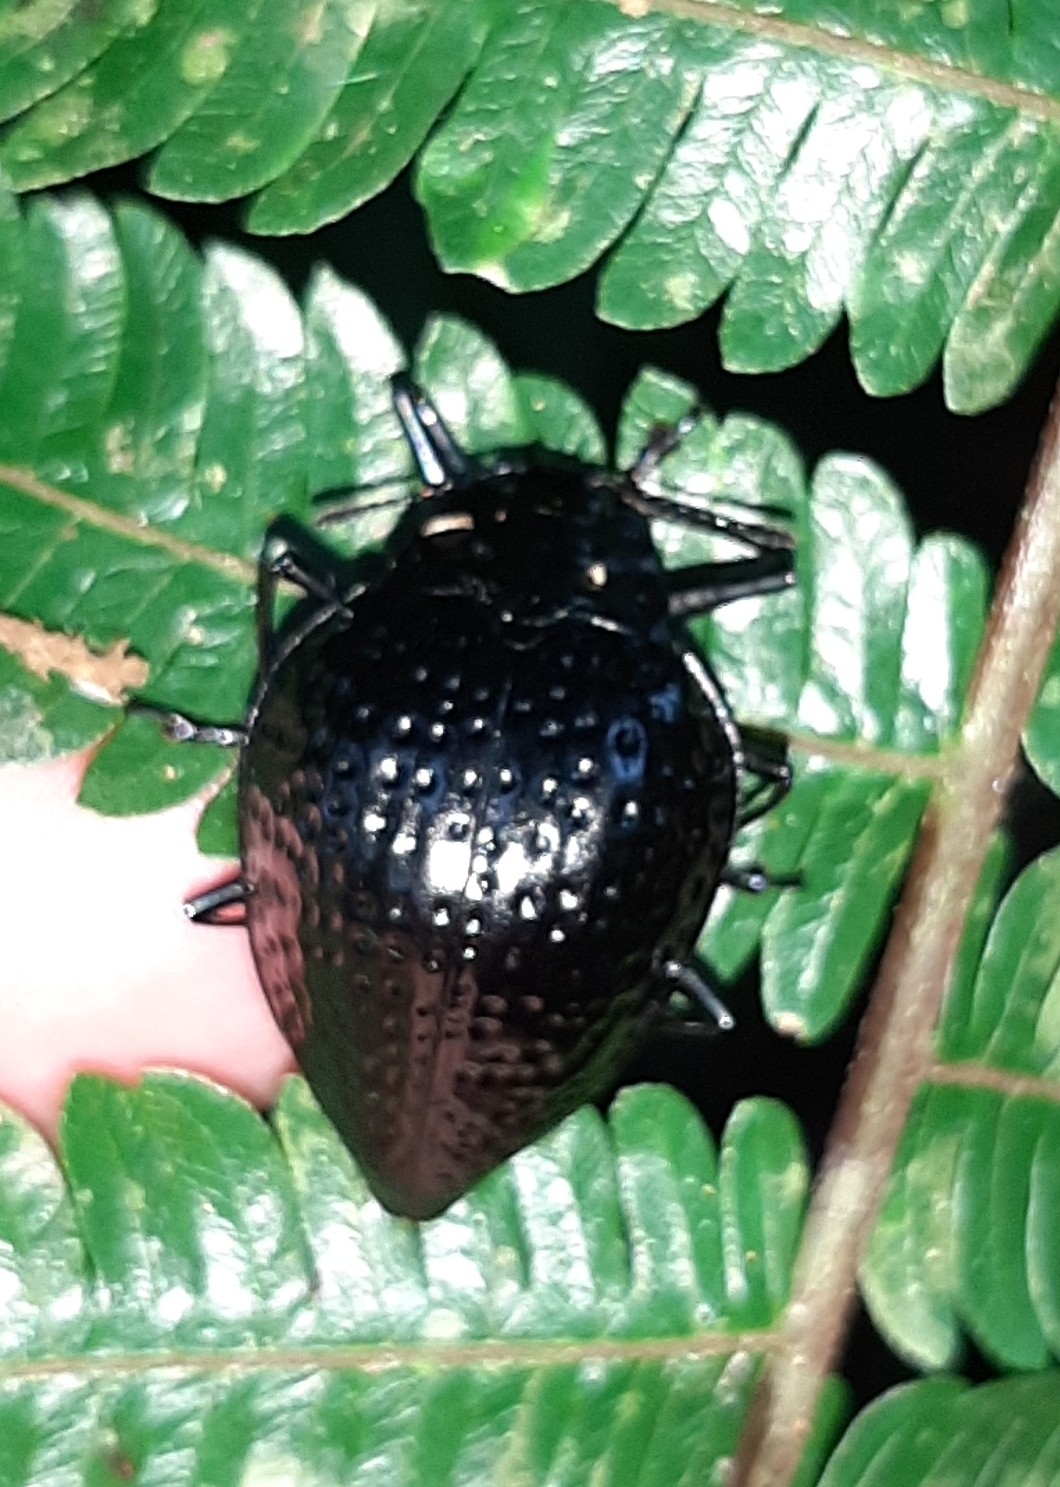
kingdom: Animalia
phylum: Arthropoda
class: Insecta
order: Coleoptera
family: Erotylidae
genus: Erotylus
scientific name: Erotylus
